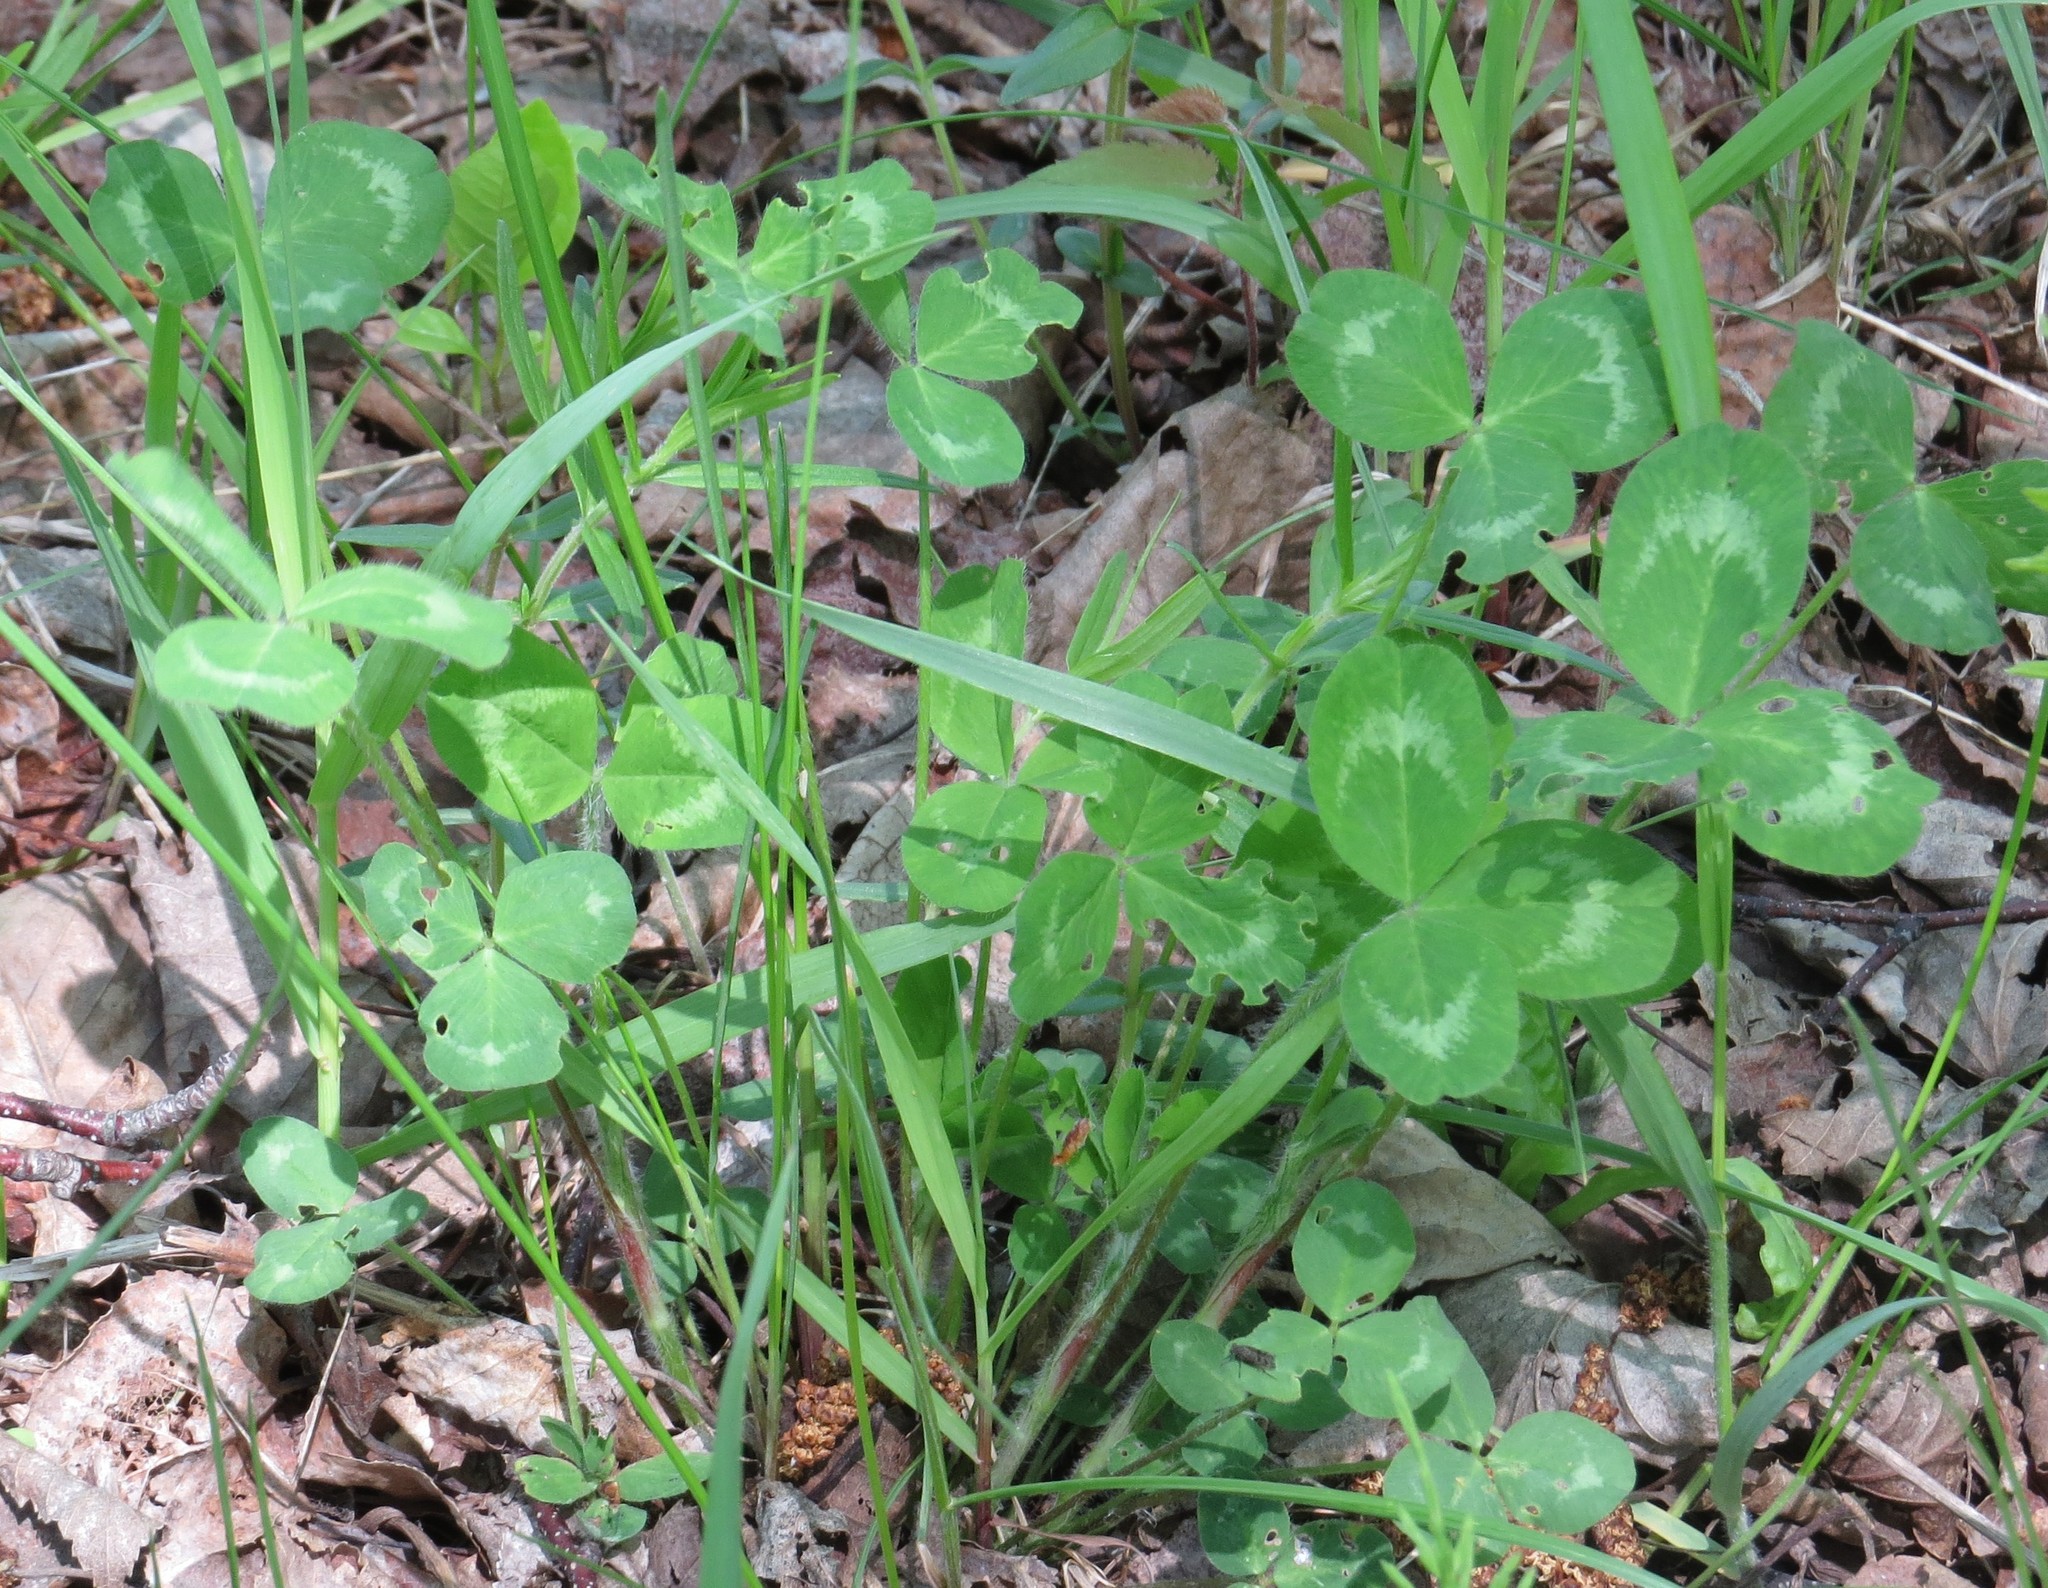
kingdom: Plantae
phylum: Tracheophyta
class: Magnoliopsida
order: Fabales
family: Fabaceae
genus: Trifolium
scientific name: Trifolium pratense
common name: Red clover
